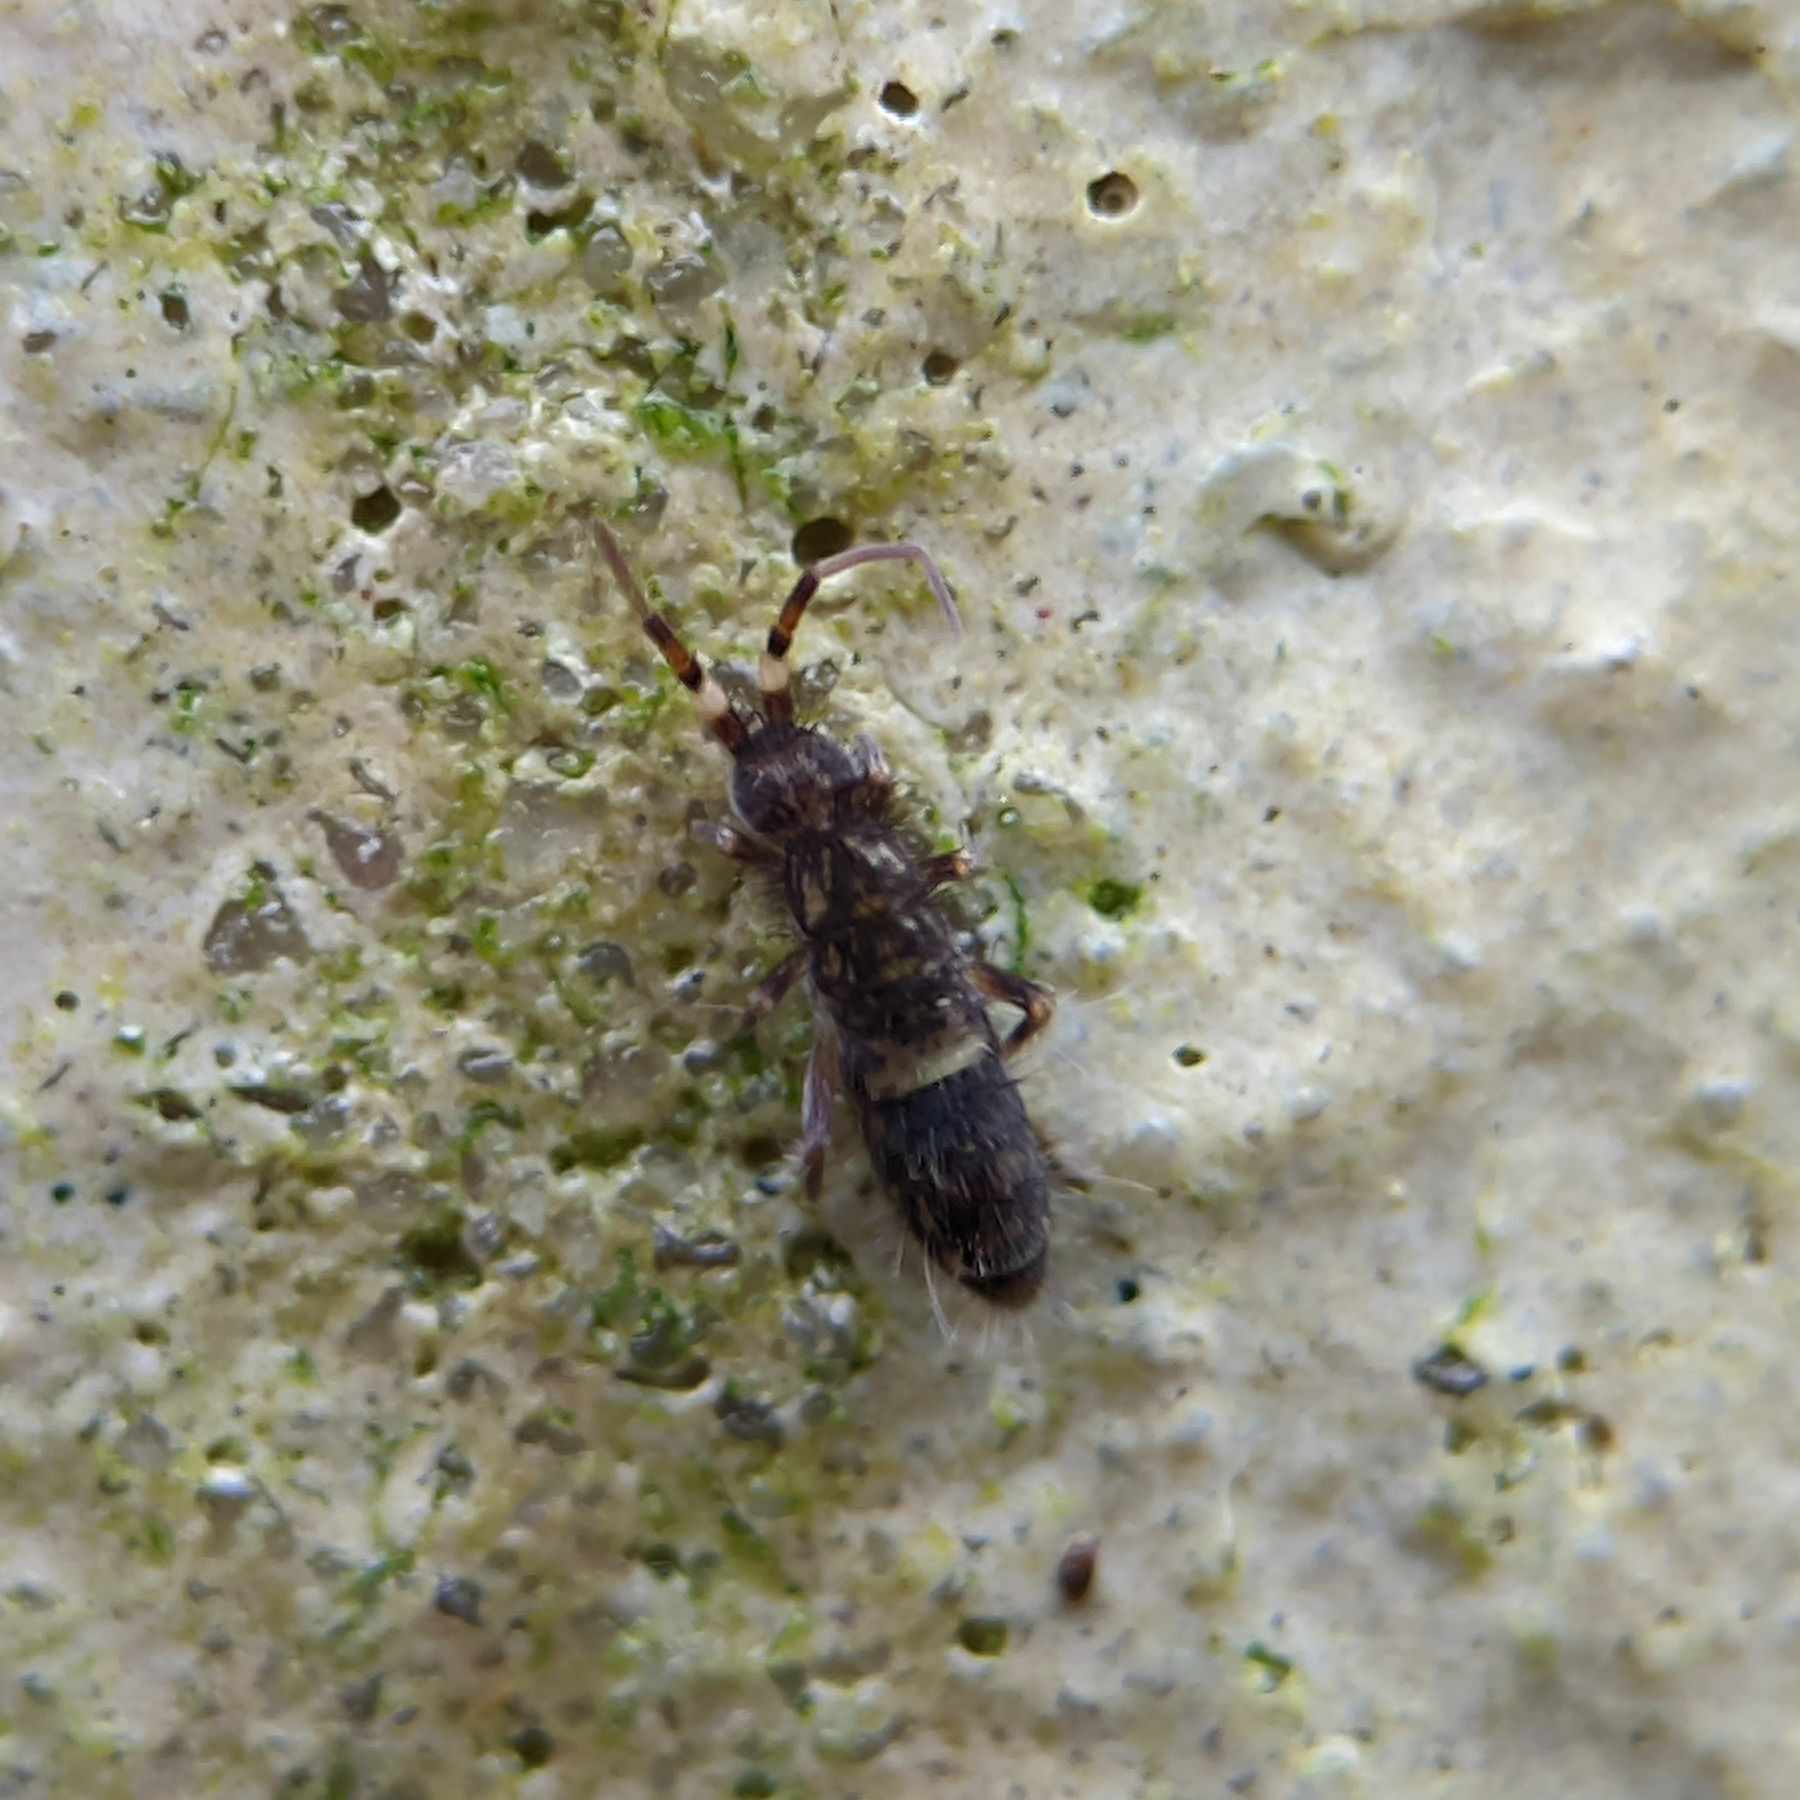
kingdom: Animalia
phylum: Arthropoda
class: Collembola
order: Entomobryomorpha
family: Orchesellidae
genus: Orchesella
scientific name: Orchesella cincta
